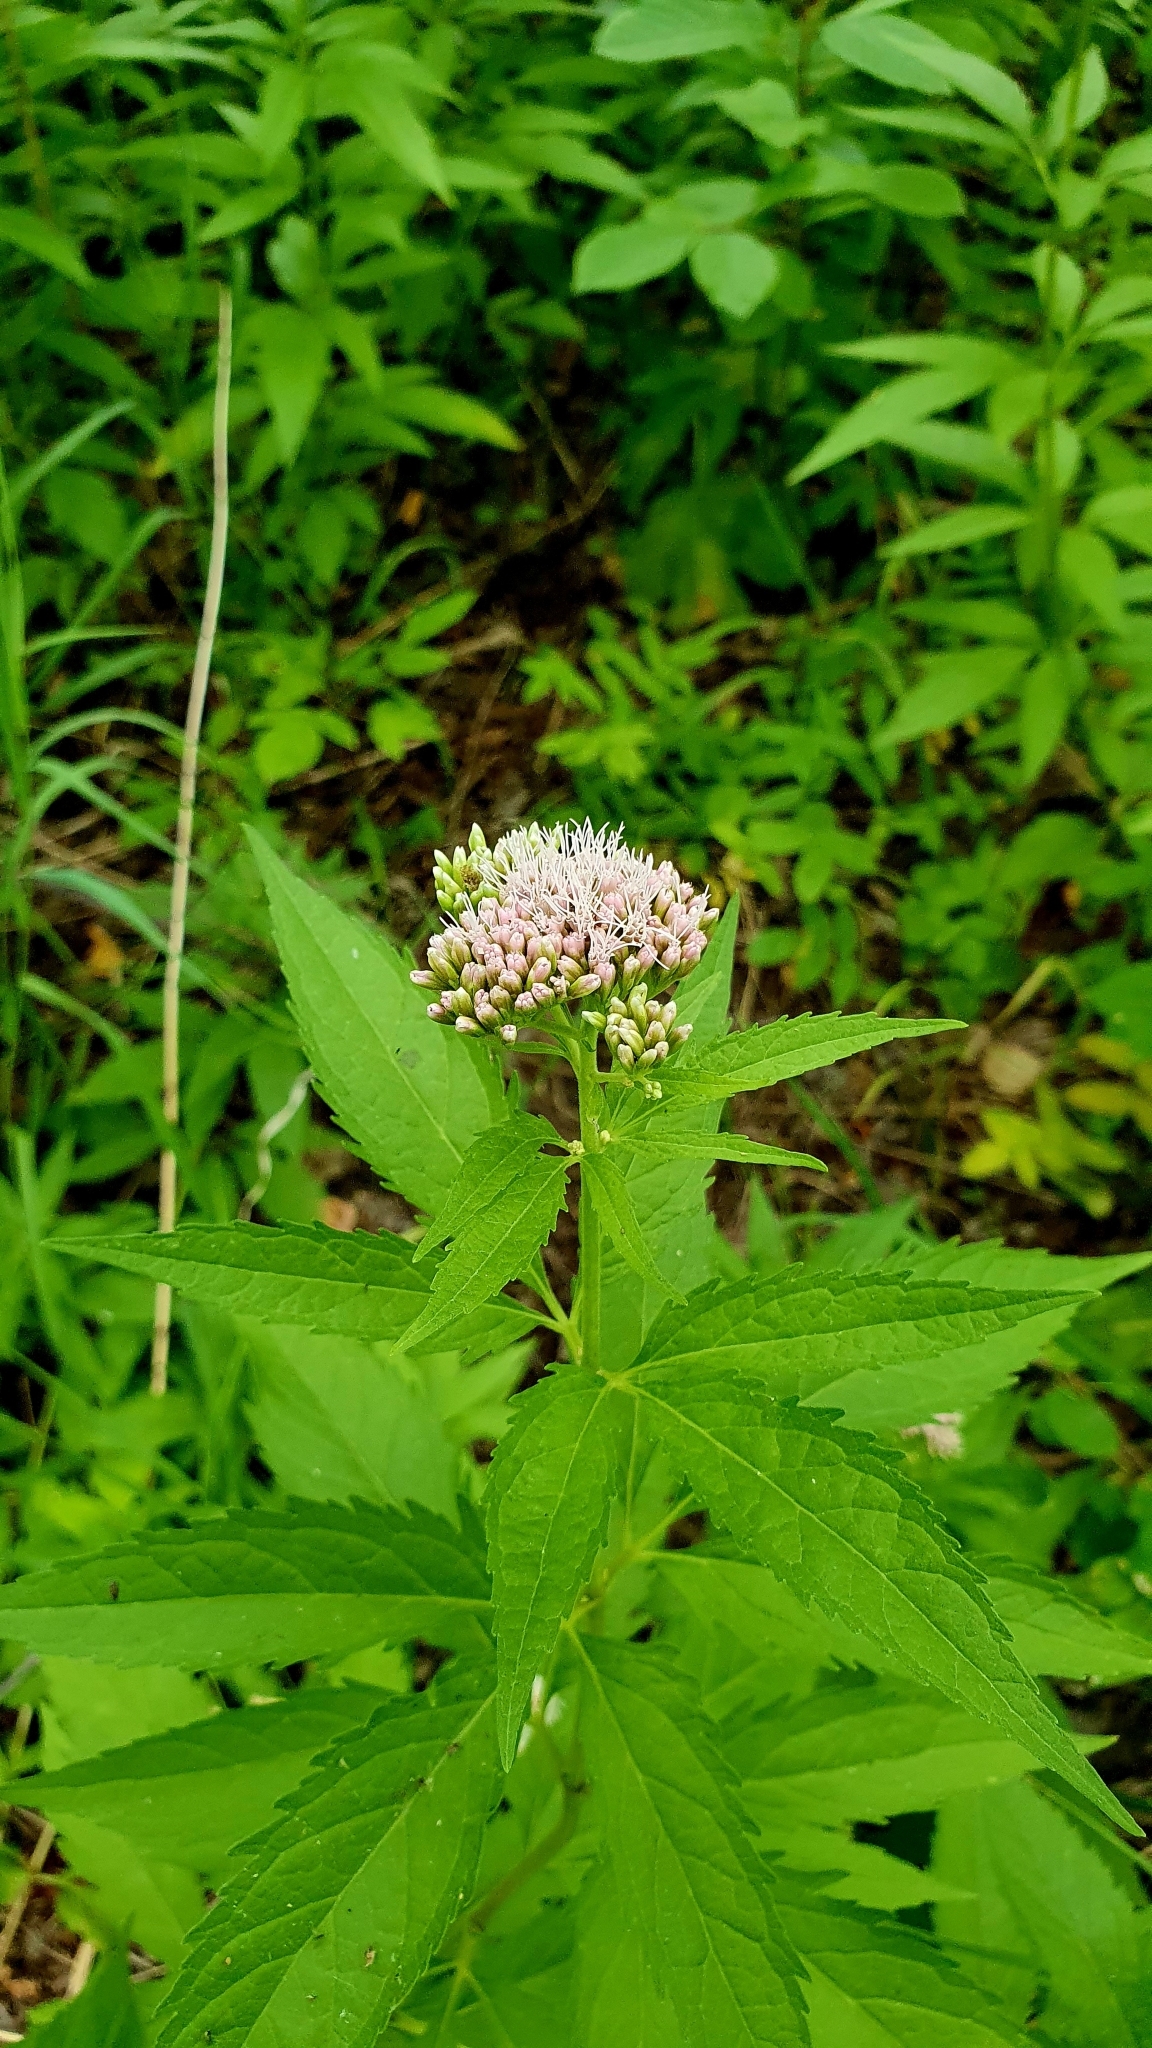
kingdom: Plantae
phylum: Tracheophyta
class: Magnoliopsida
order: Asterales
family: Asteraceae
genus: Eupatorium
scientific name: Eupatorium cannabinum
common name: Hemp-agrimony
